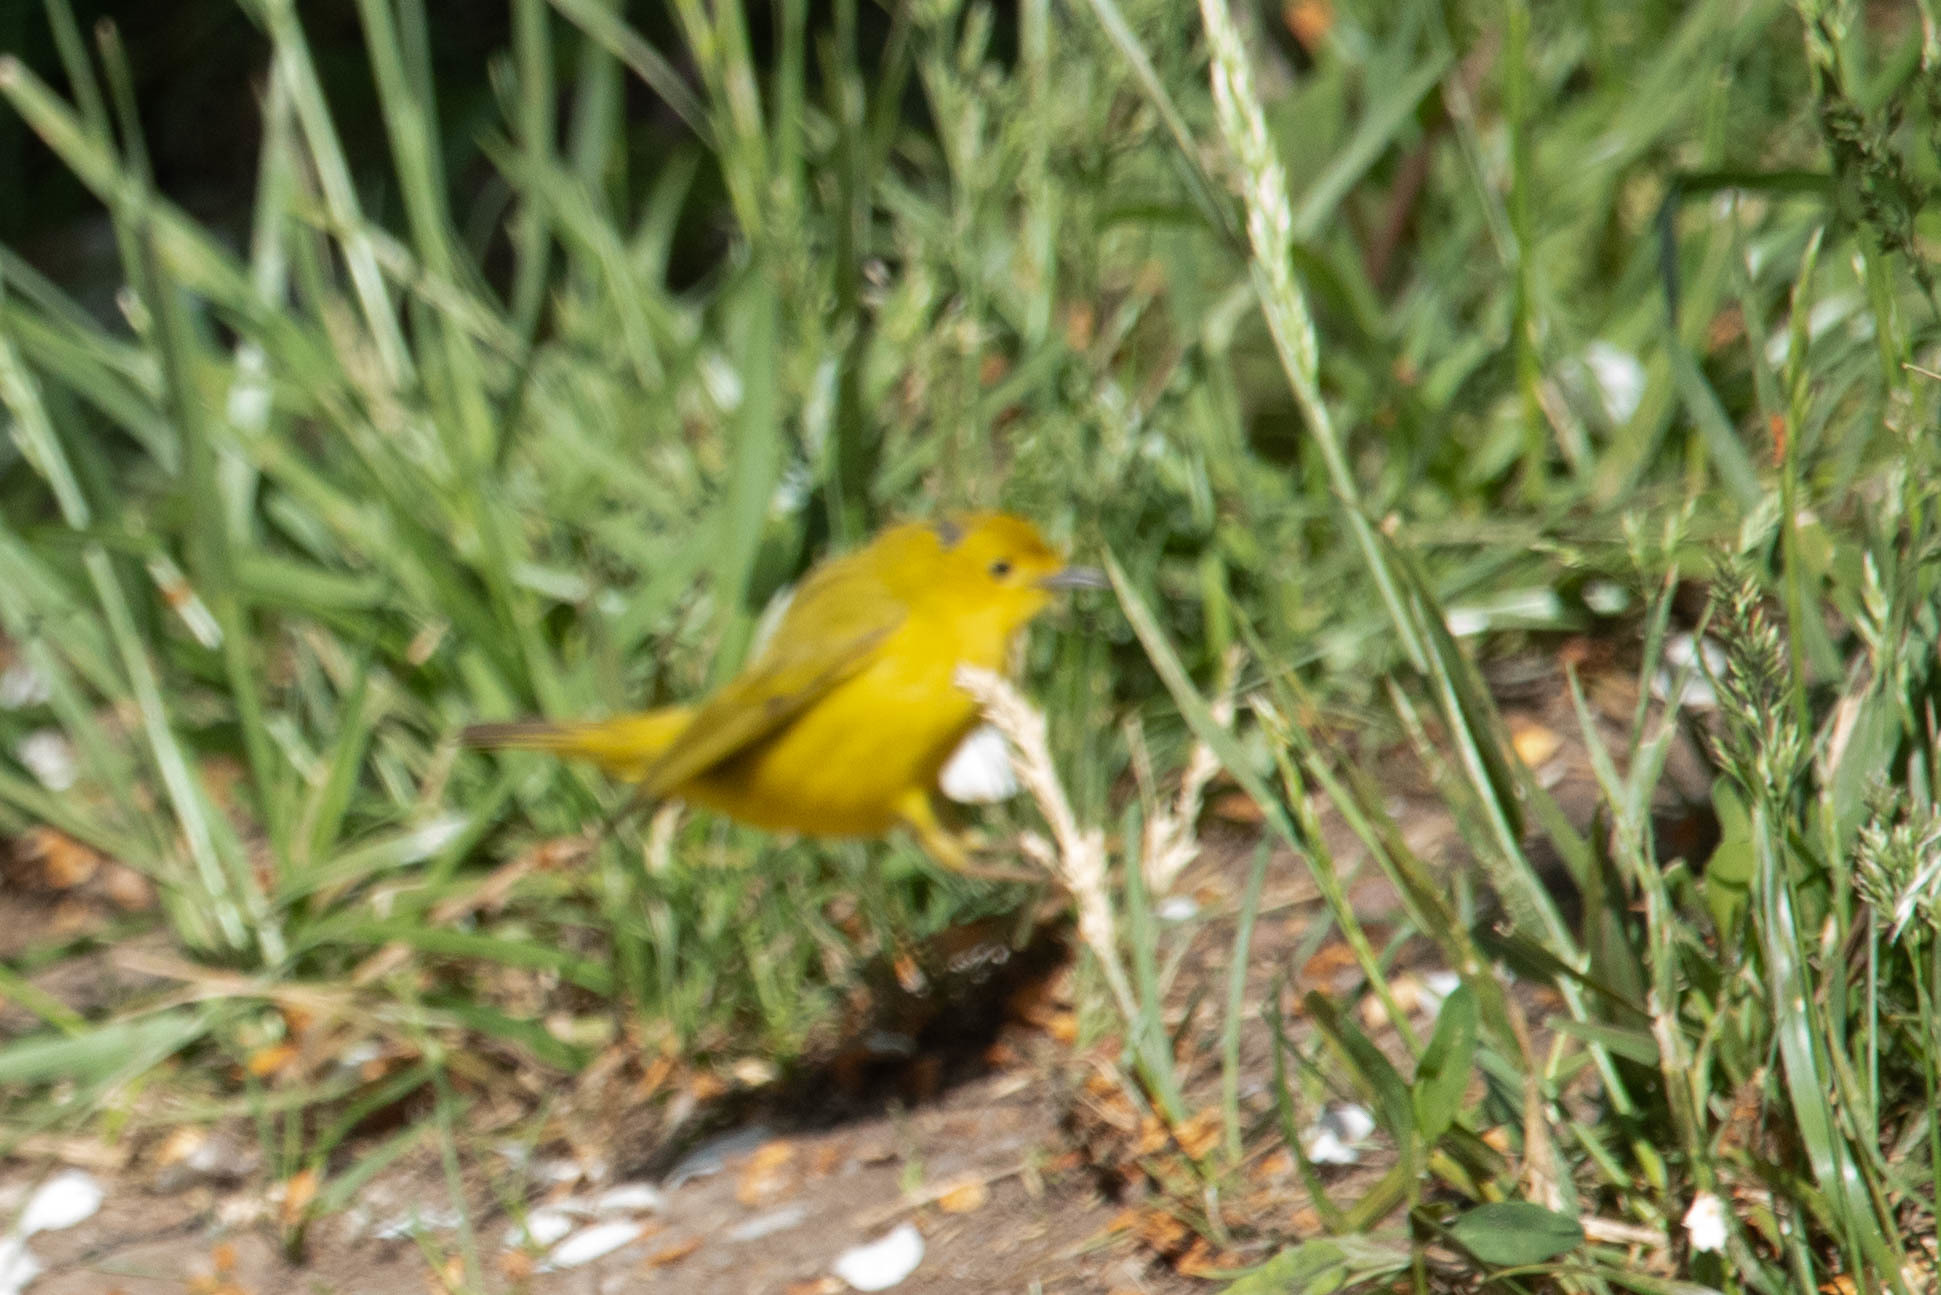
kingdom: Animalia
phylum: Chordata
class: Aves
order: Passeriformes
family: Parulidae
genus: Setophaga
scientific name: Setophaga petechia
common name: Yellow warbler
